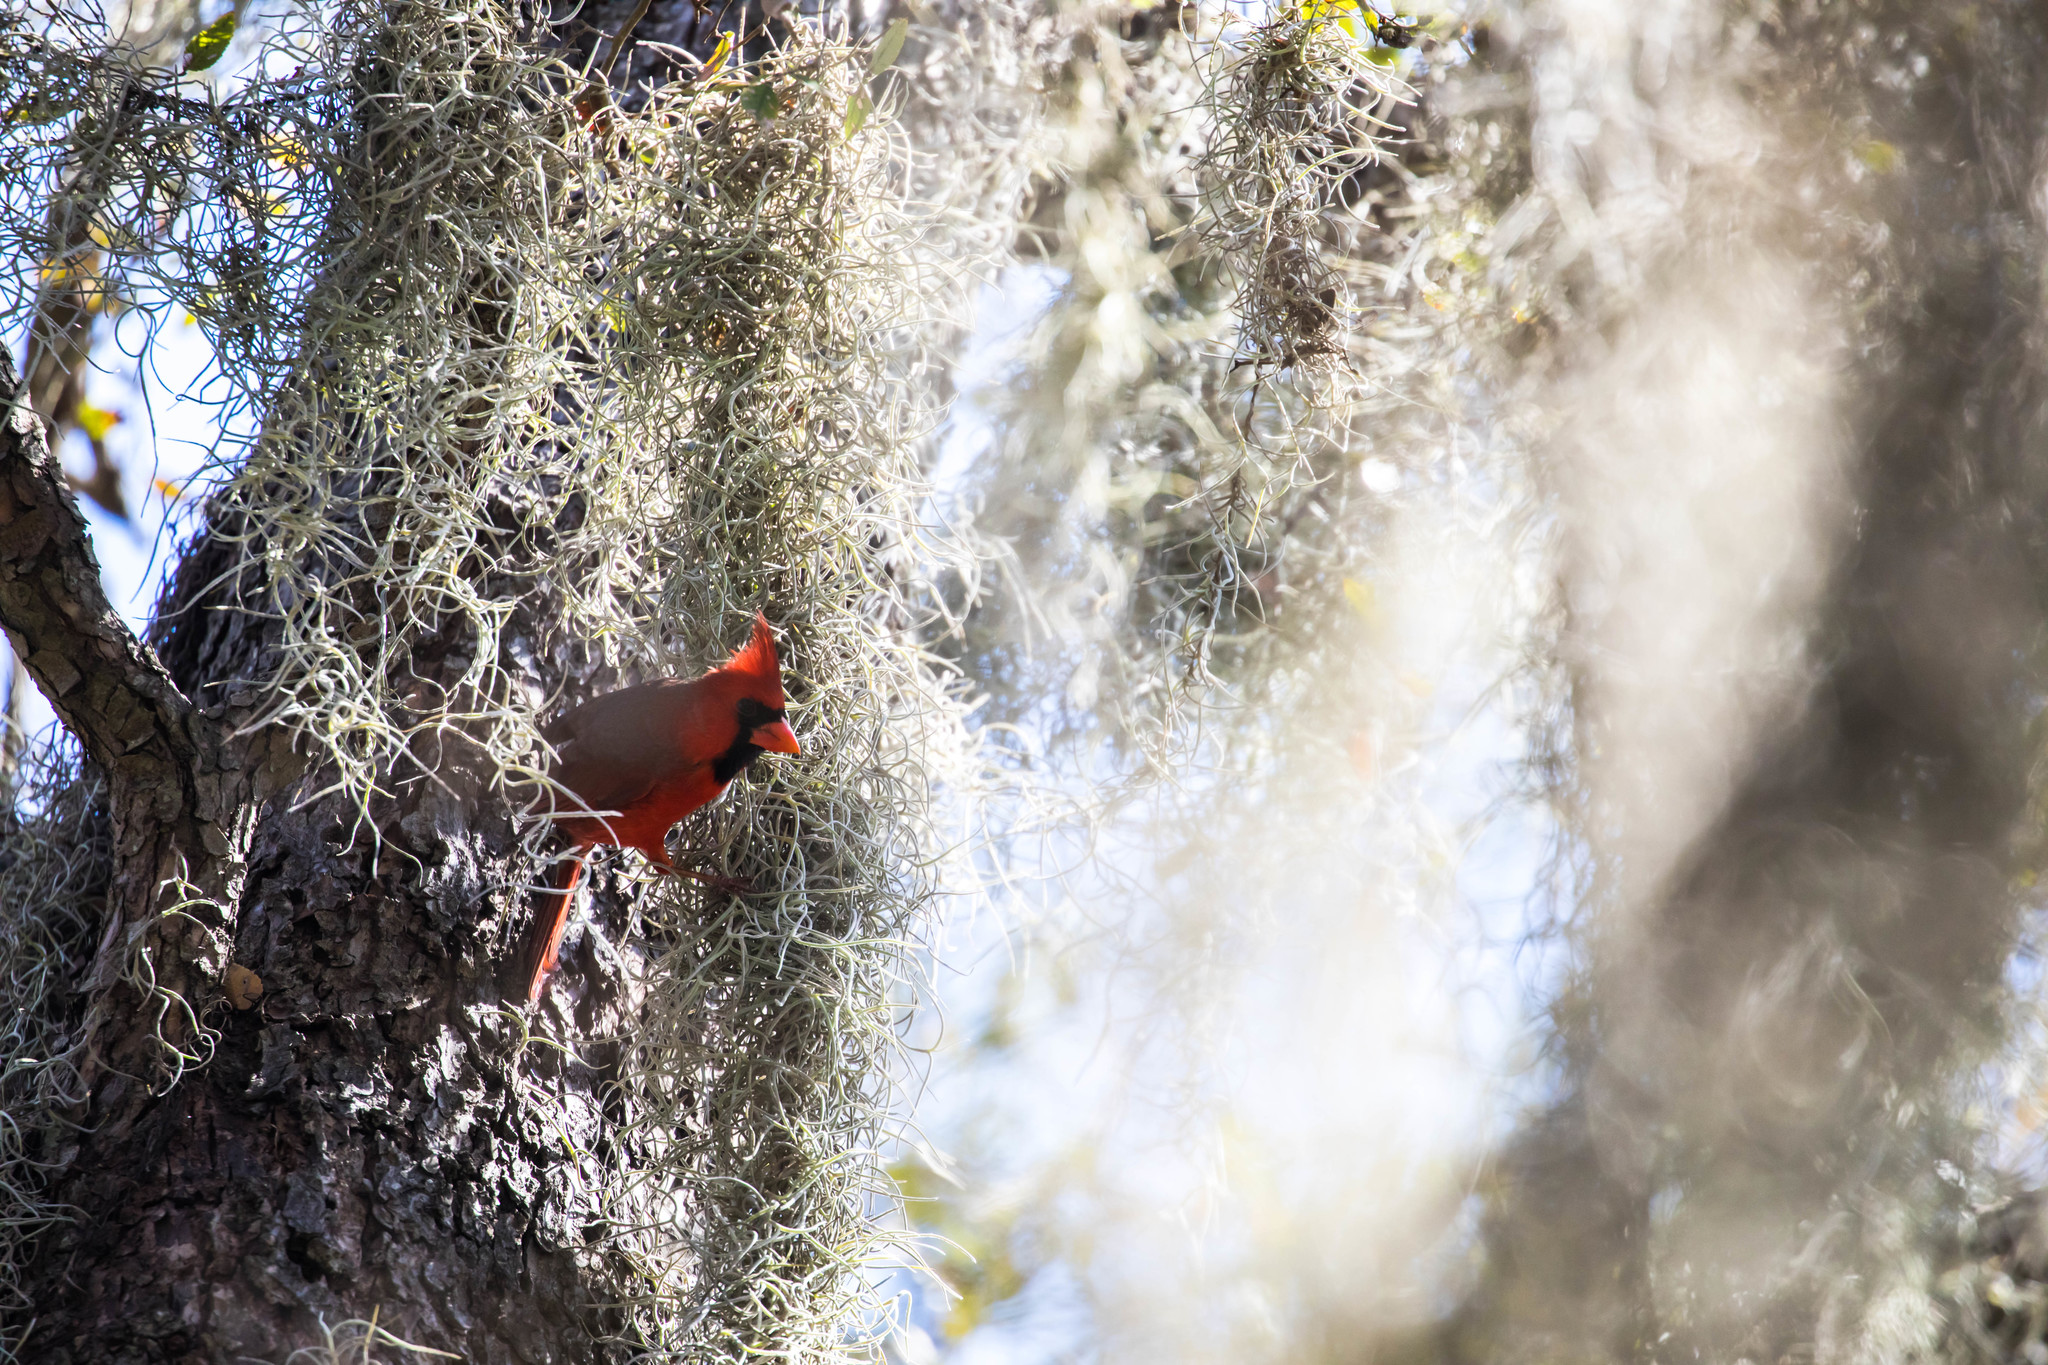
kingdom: Animalia
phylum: Chordata
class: Aves
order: Passeriformes
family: Cardinalidae
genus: Cardinalis
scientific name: Cardinalis cardinalis
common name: Northern cardinal
